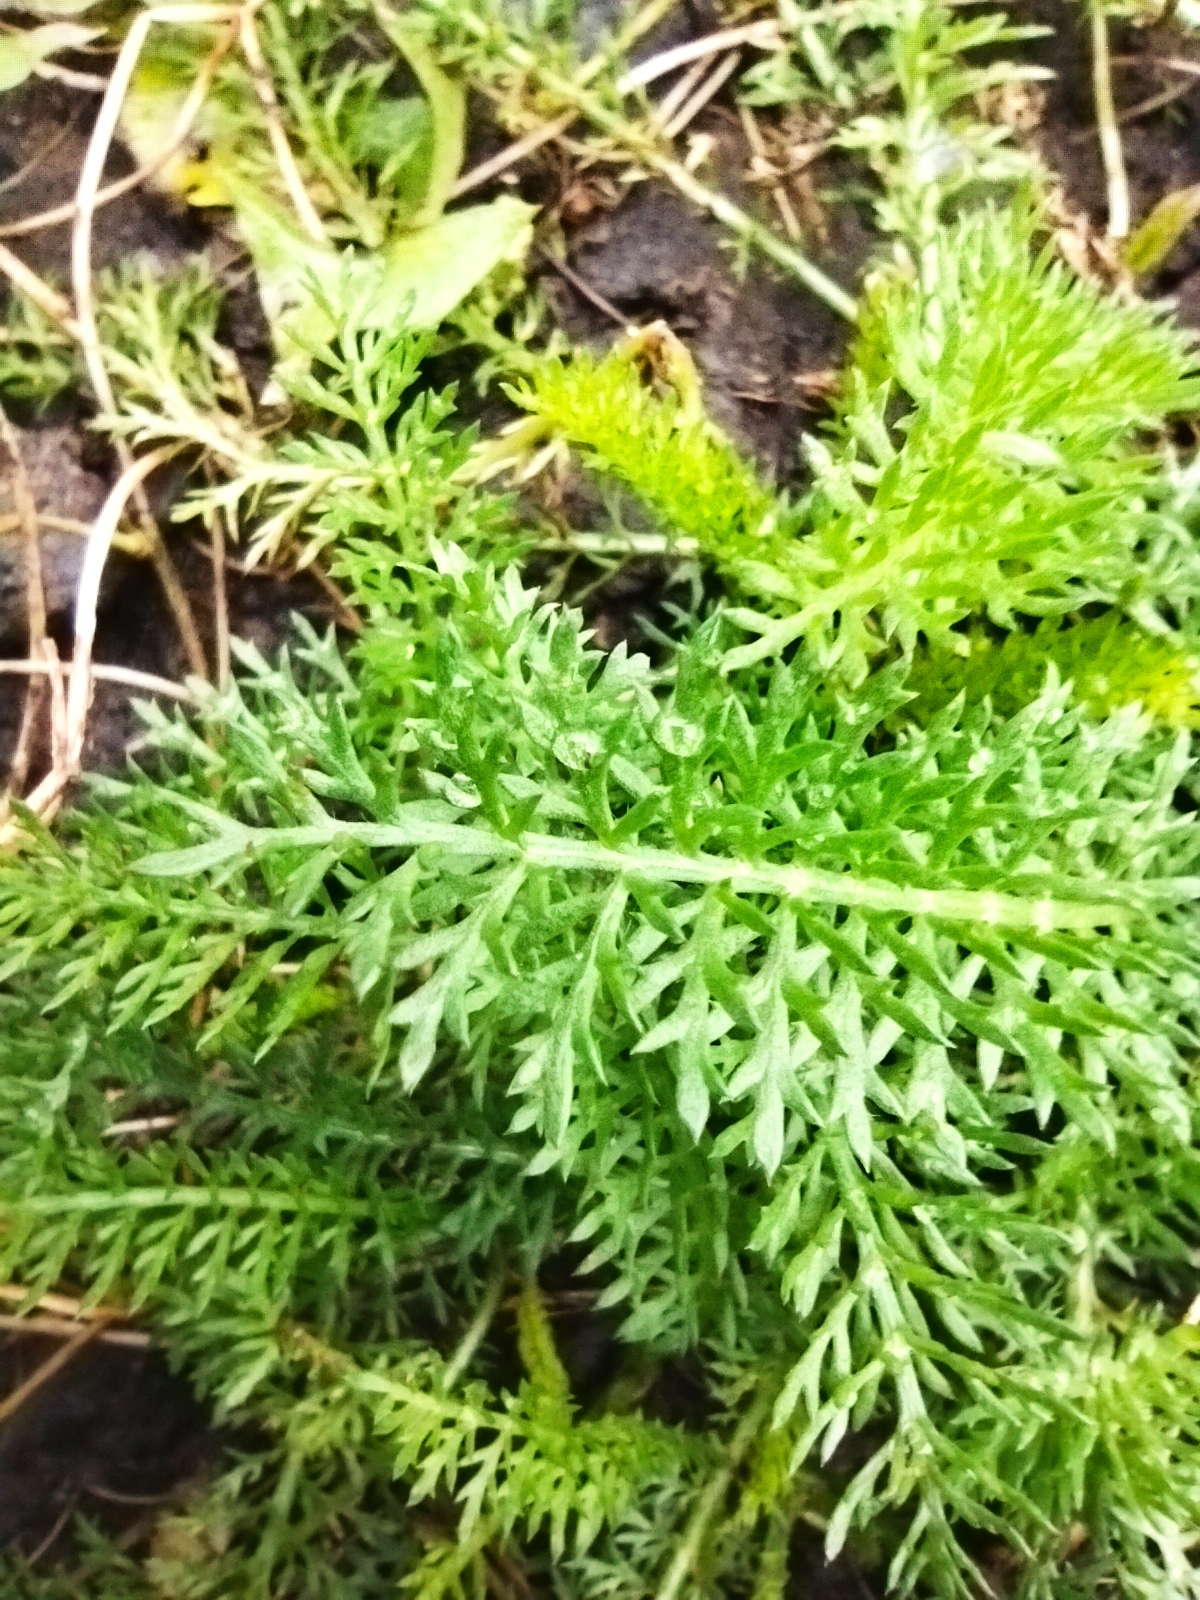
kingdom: Plantae
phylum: Tracheophyta
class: Magnoliopsida
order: Asterales
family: Asteraceae
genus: Achillea
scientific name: Achillea millefolium
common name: Yarrow
